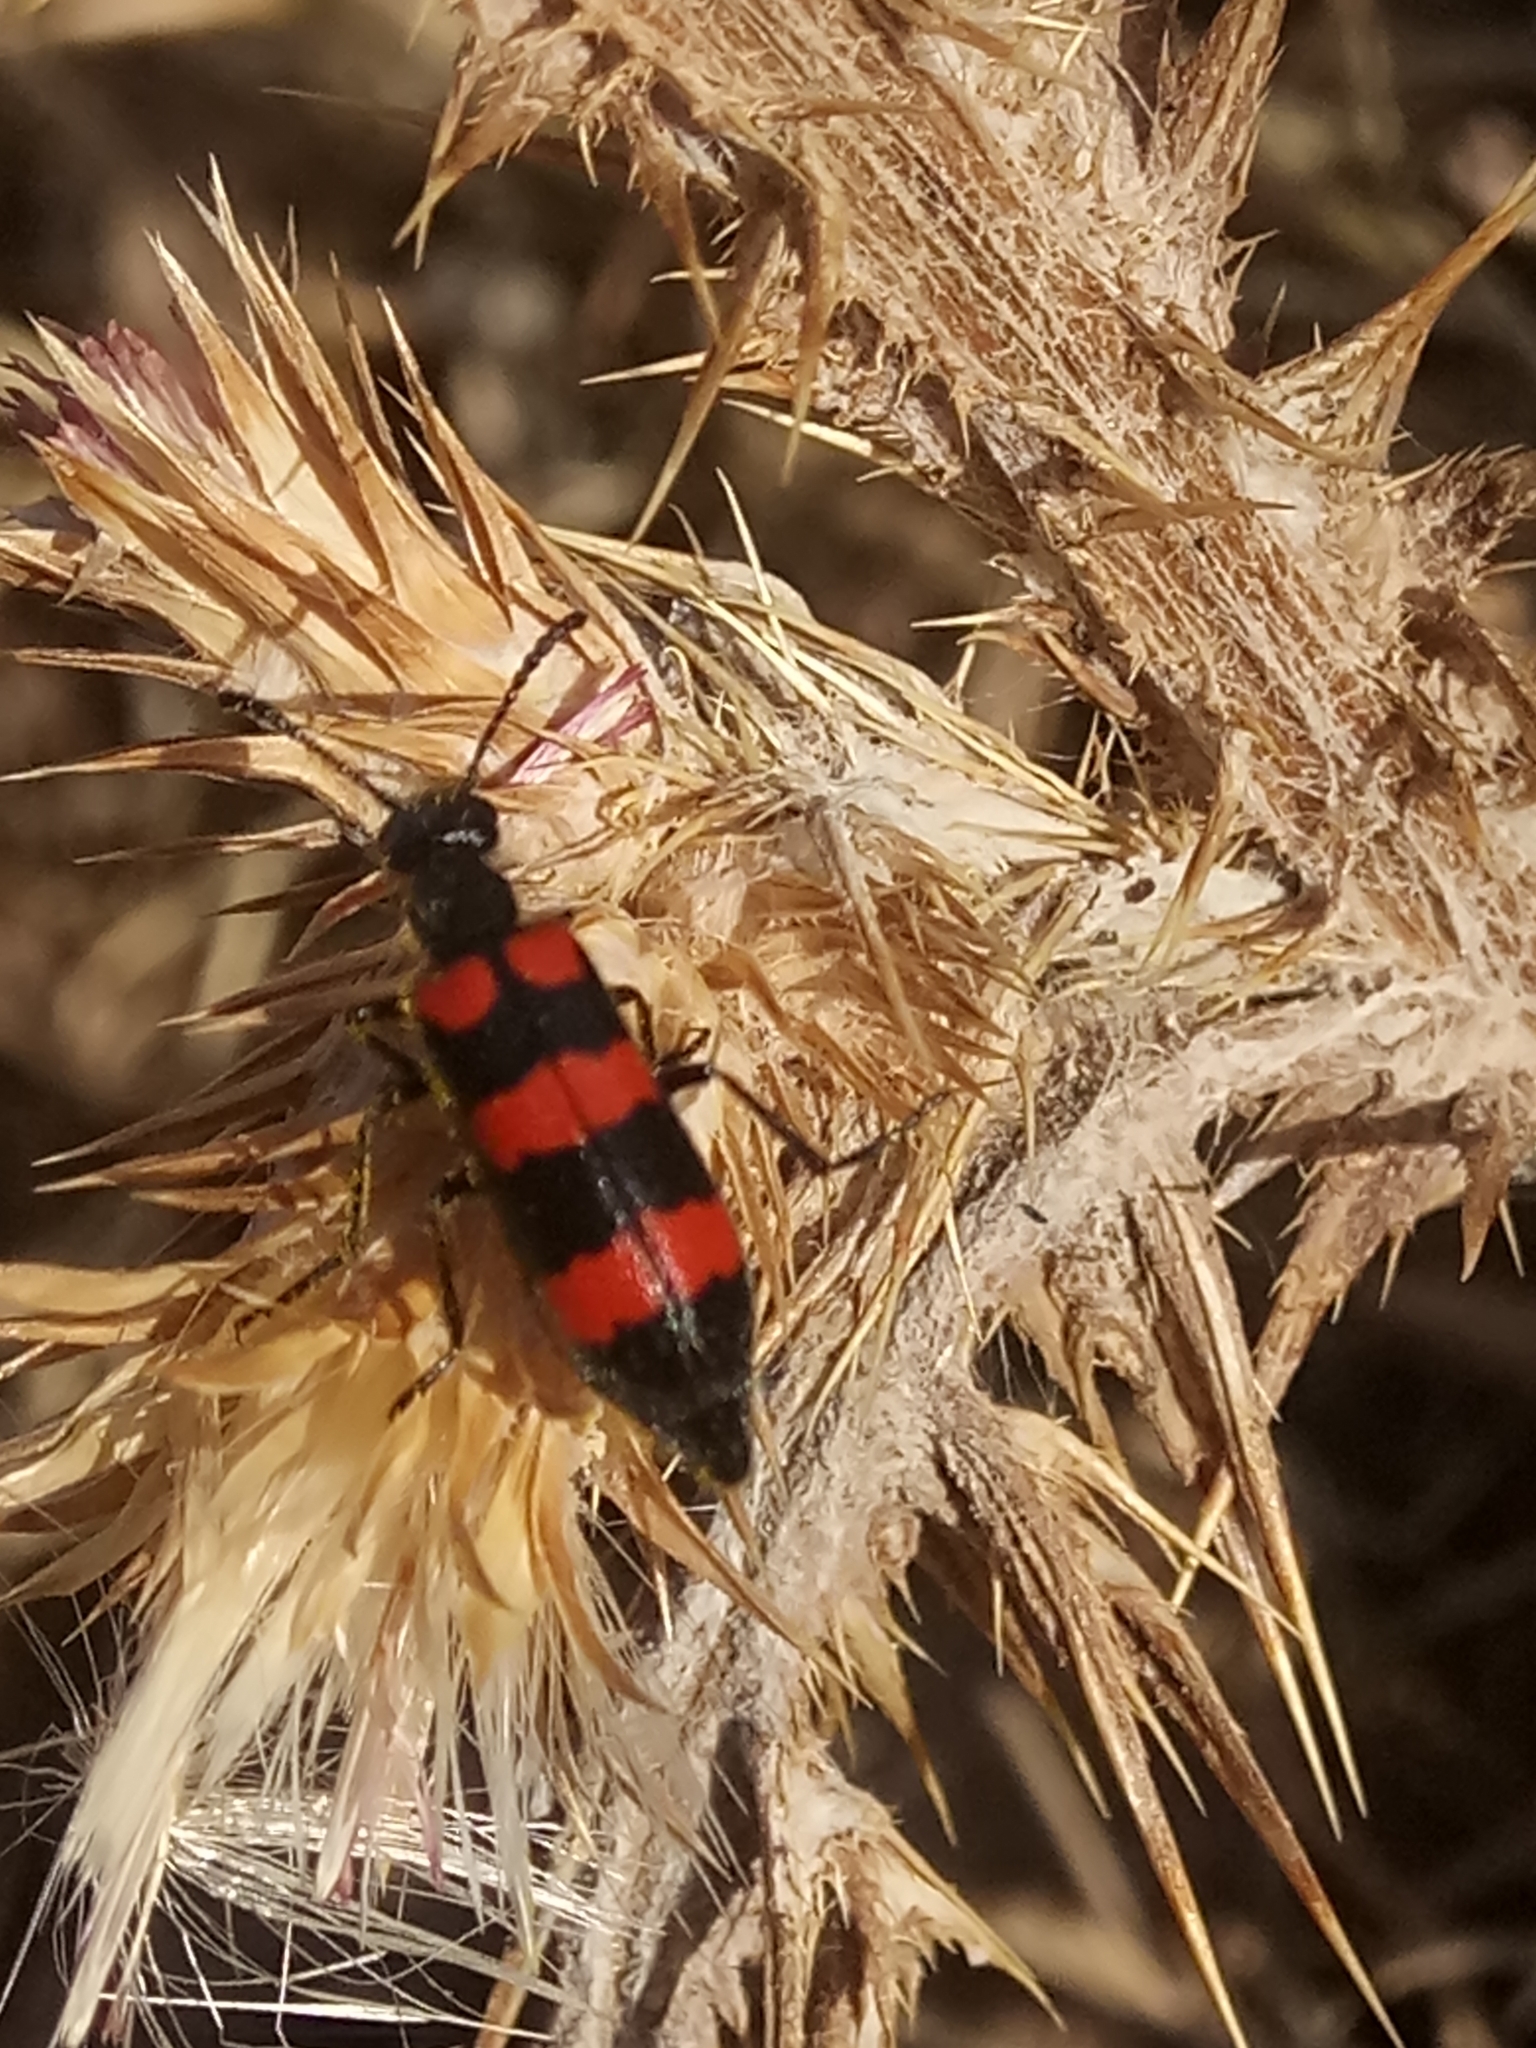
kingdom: Animalia
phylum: Arthropoda
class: Insecta
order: Coleoptera
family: Meloidae
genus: Mylabris
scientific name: Mylabris tricincta
